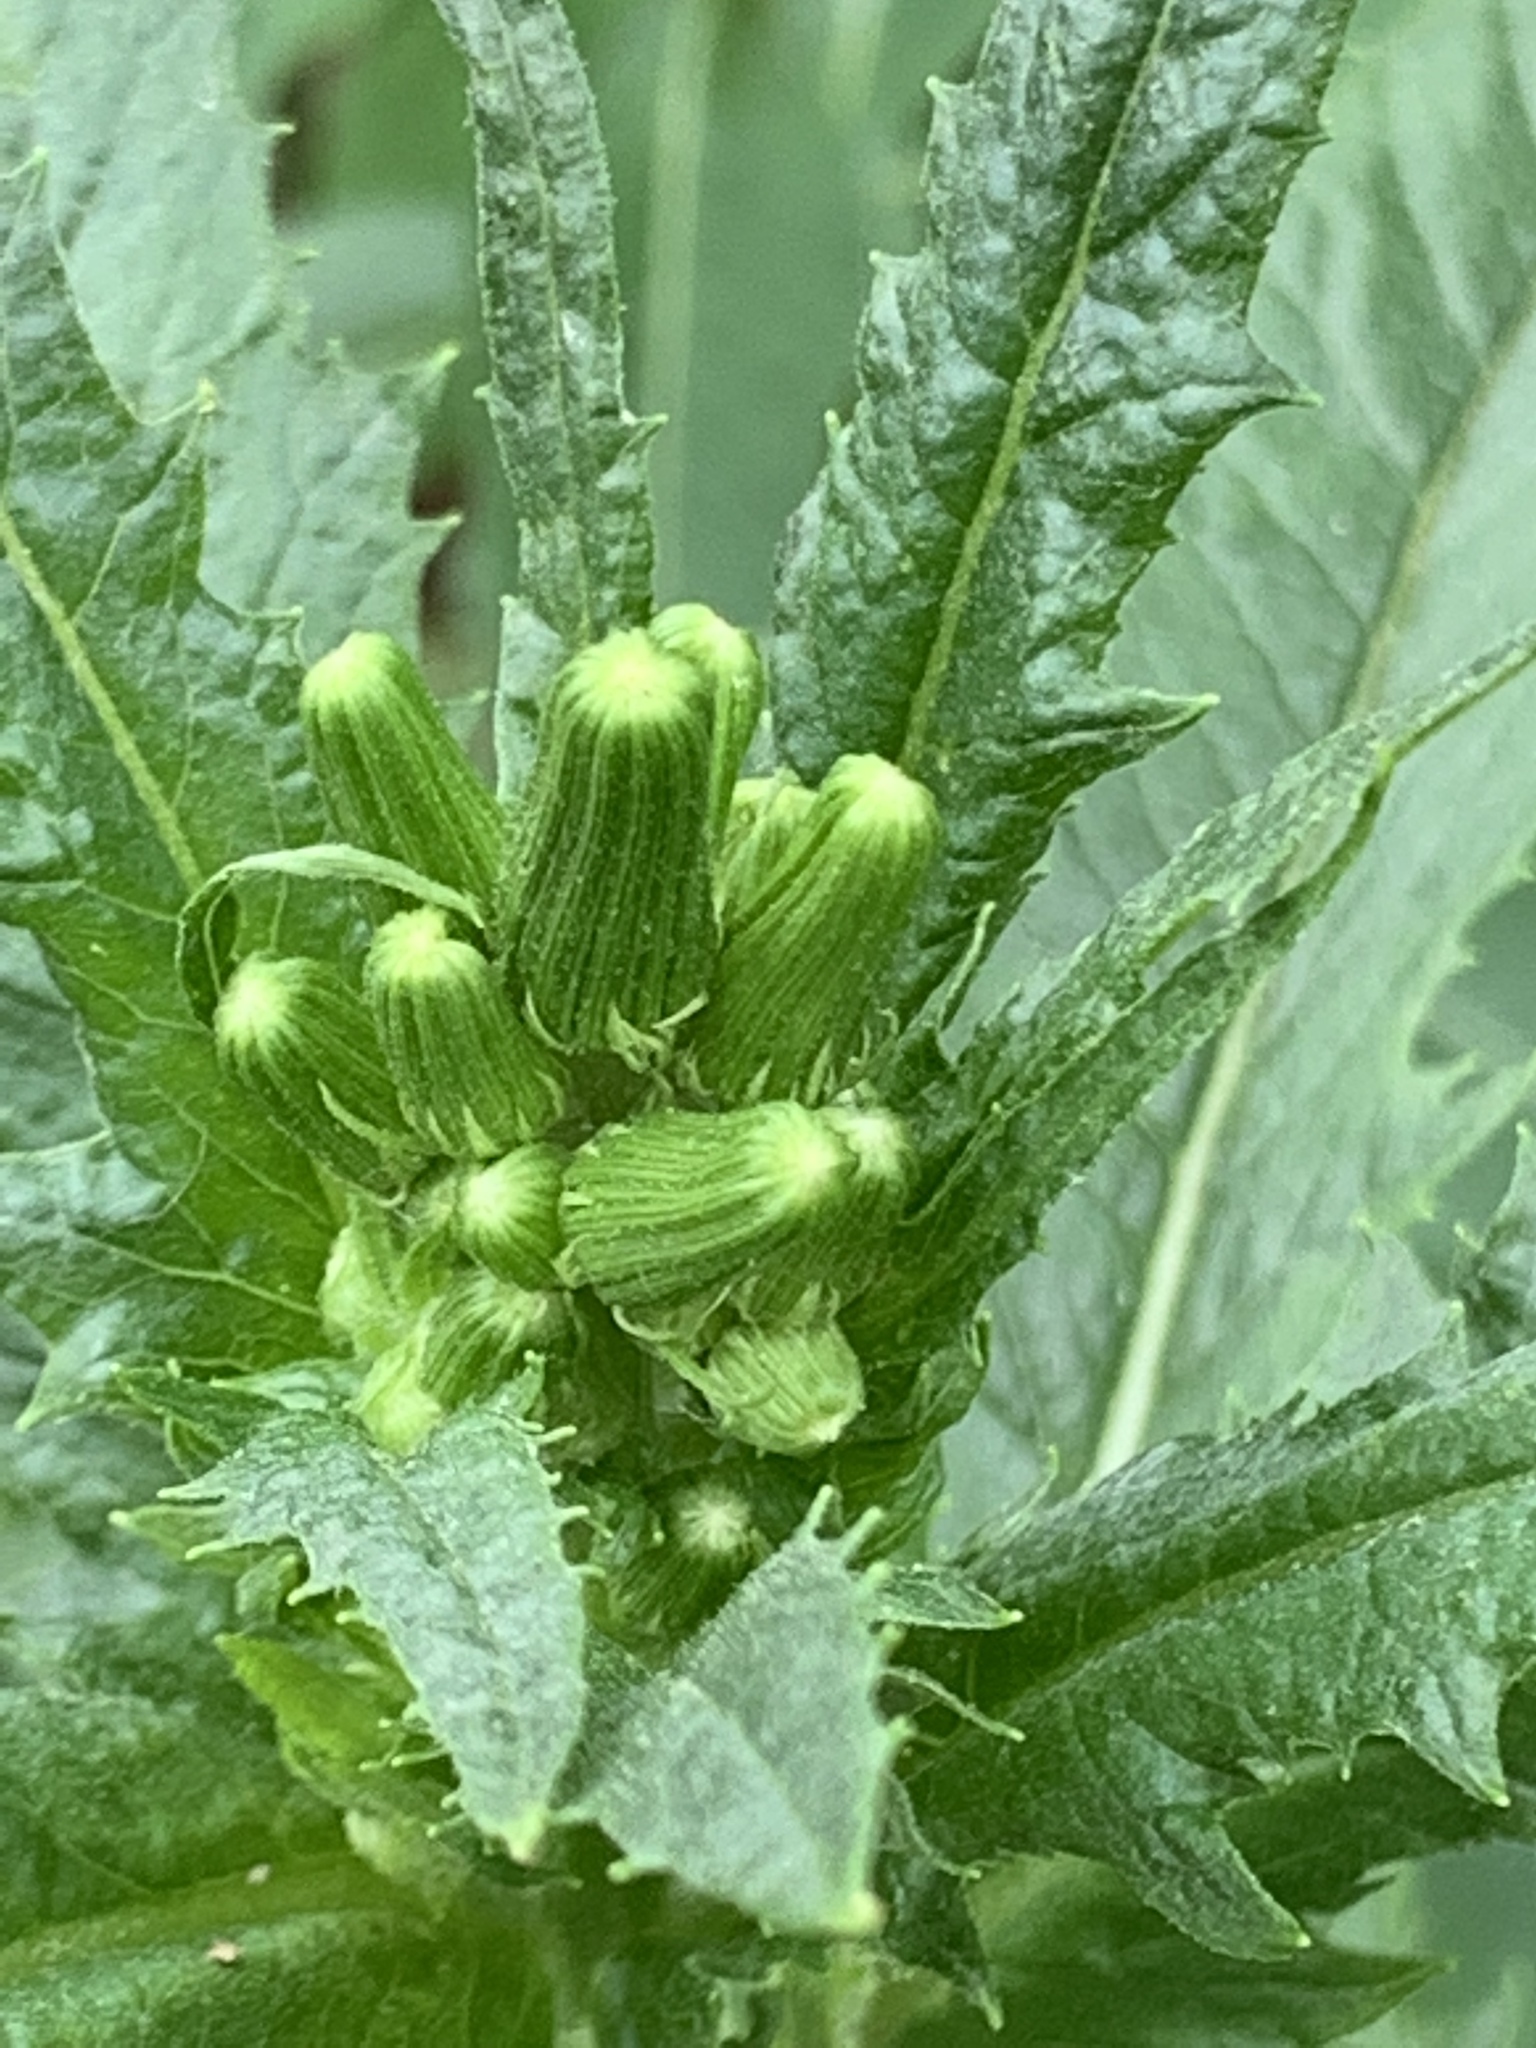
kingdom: Plantae
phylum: Tracheophyta
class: Magnoliopsida
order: Asterales
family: Asteraceae
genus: Erechtites
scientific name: Erechtites hieraciifolius
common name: American burnweed
